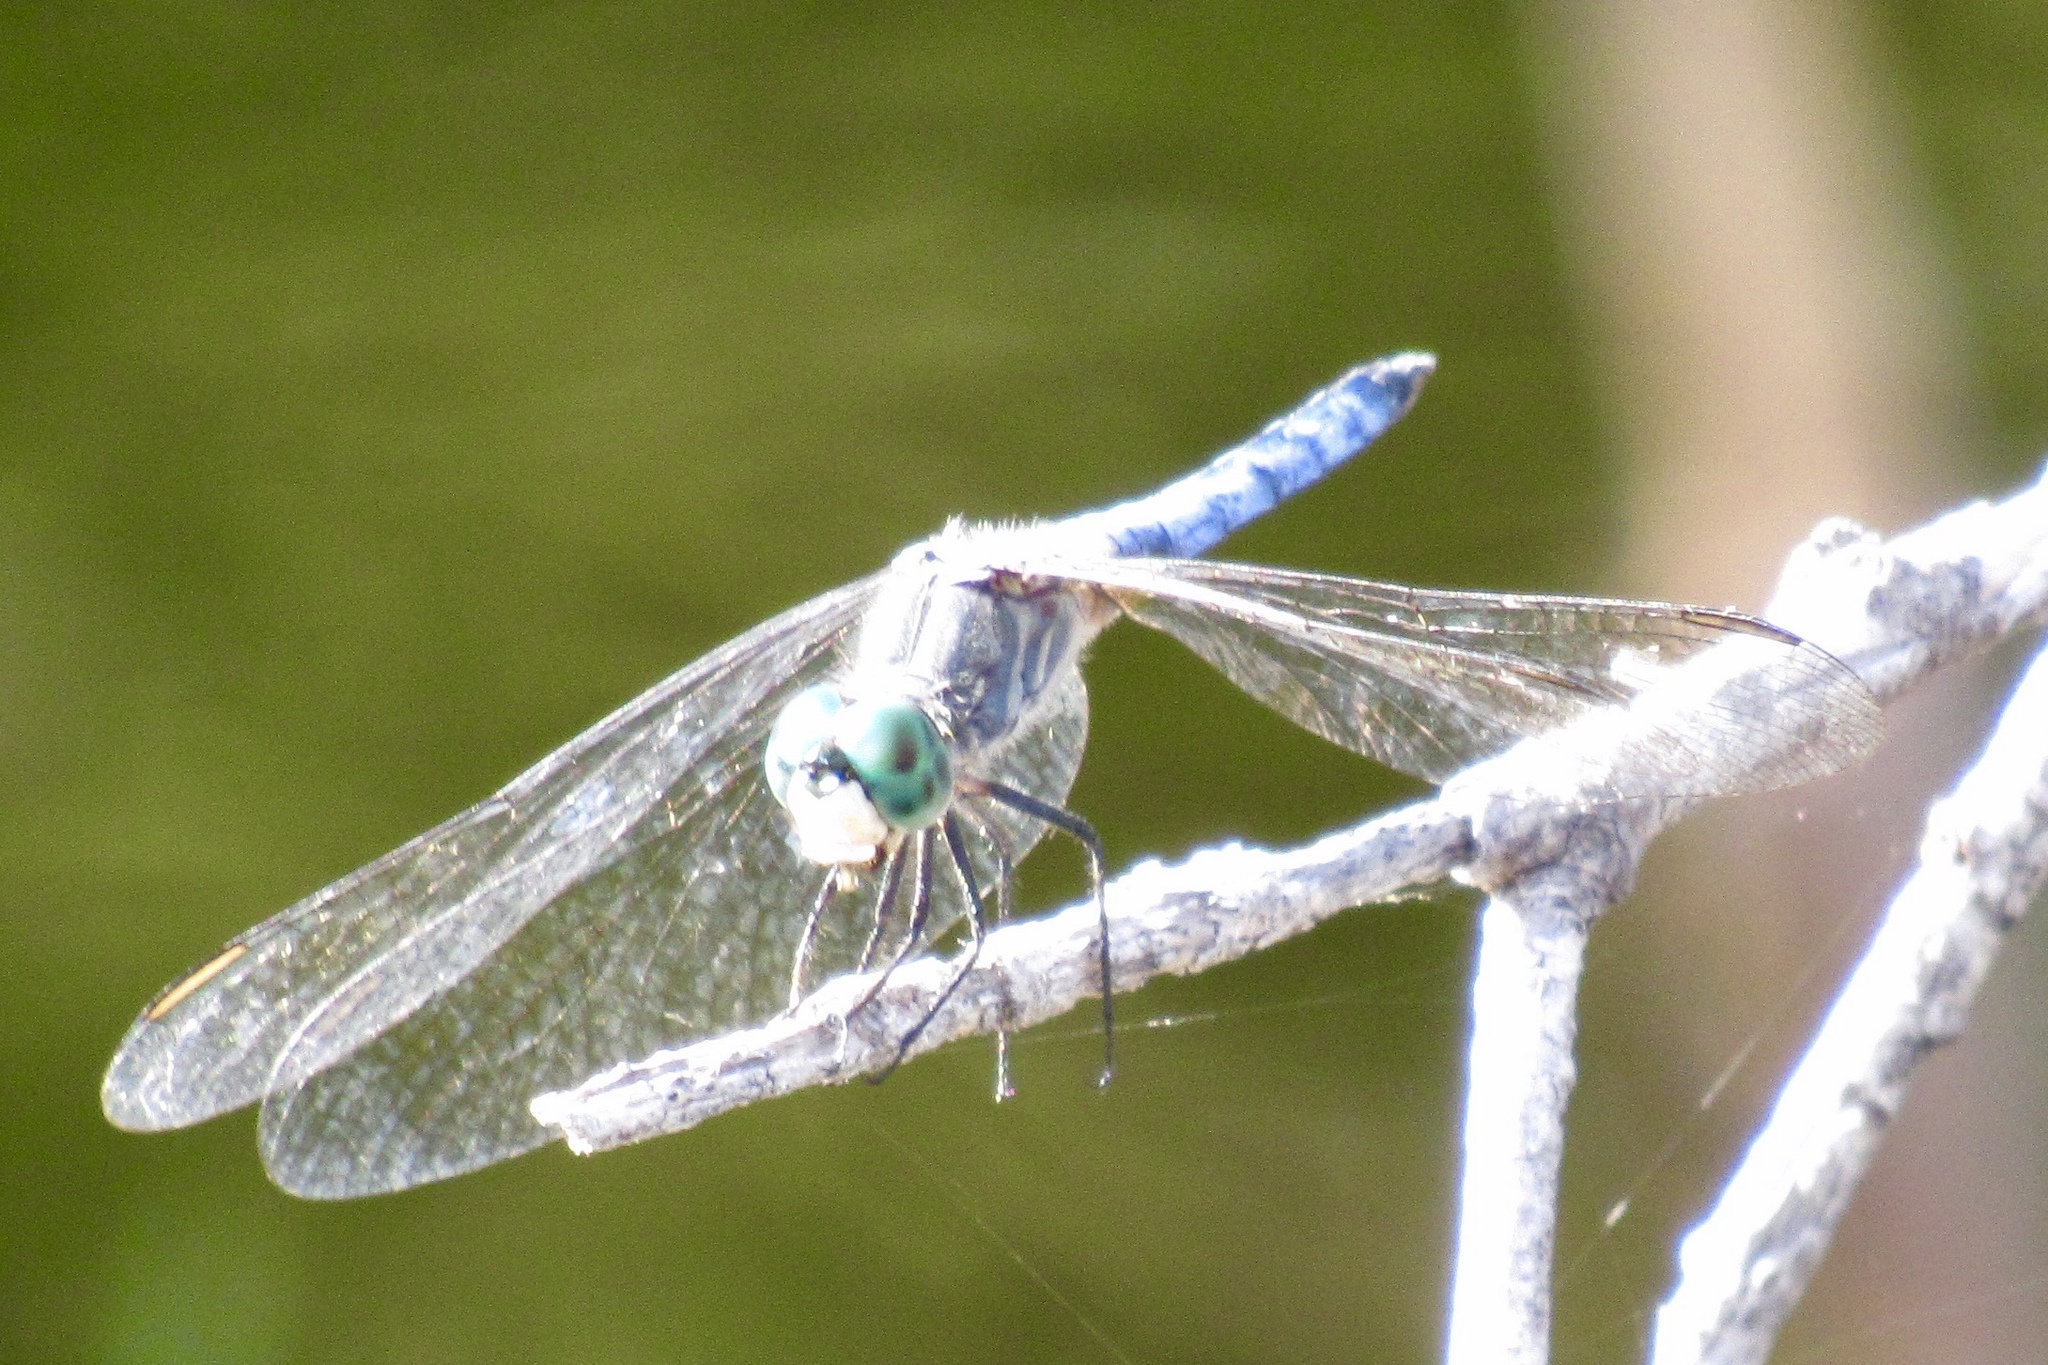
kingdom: Animalia
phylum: Arthropoda
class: Insecta
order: Odonata
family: Libellulidae
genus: Pachydiplax
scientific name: Pachydiplax longipennis
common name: Blue dasher
